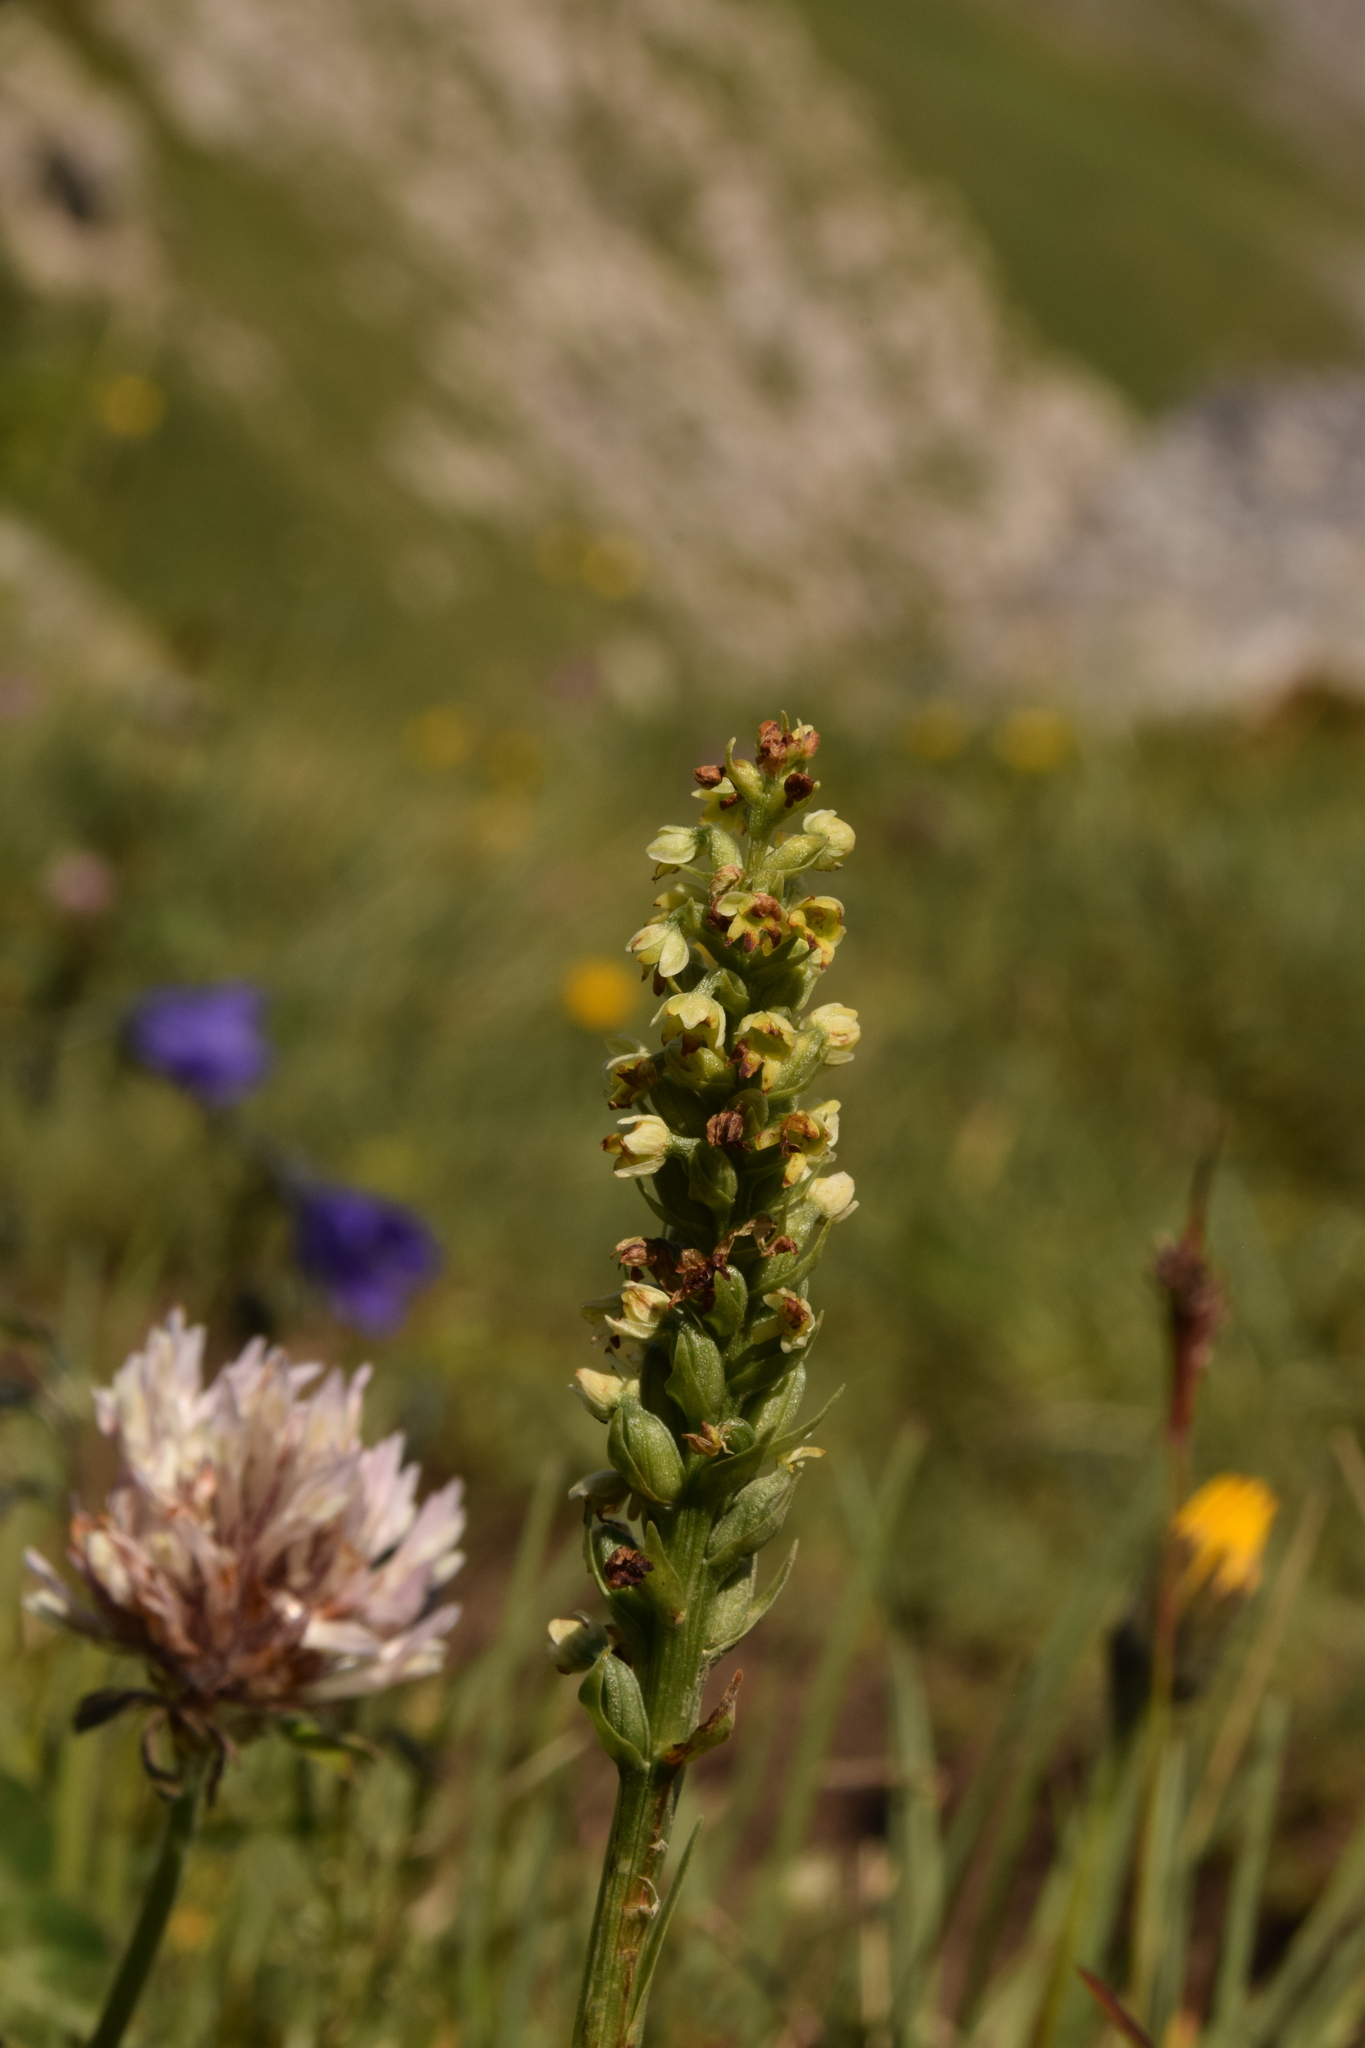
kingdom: Plantae
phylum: Tracheophyta
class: Liliopsida
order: Asparagales
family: Orchidaceae
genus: Pseudorchis
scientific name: Pseudorchis albida
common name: Small-white orchid
